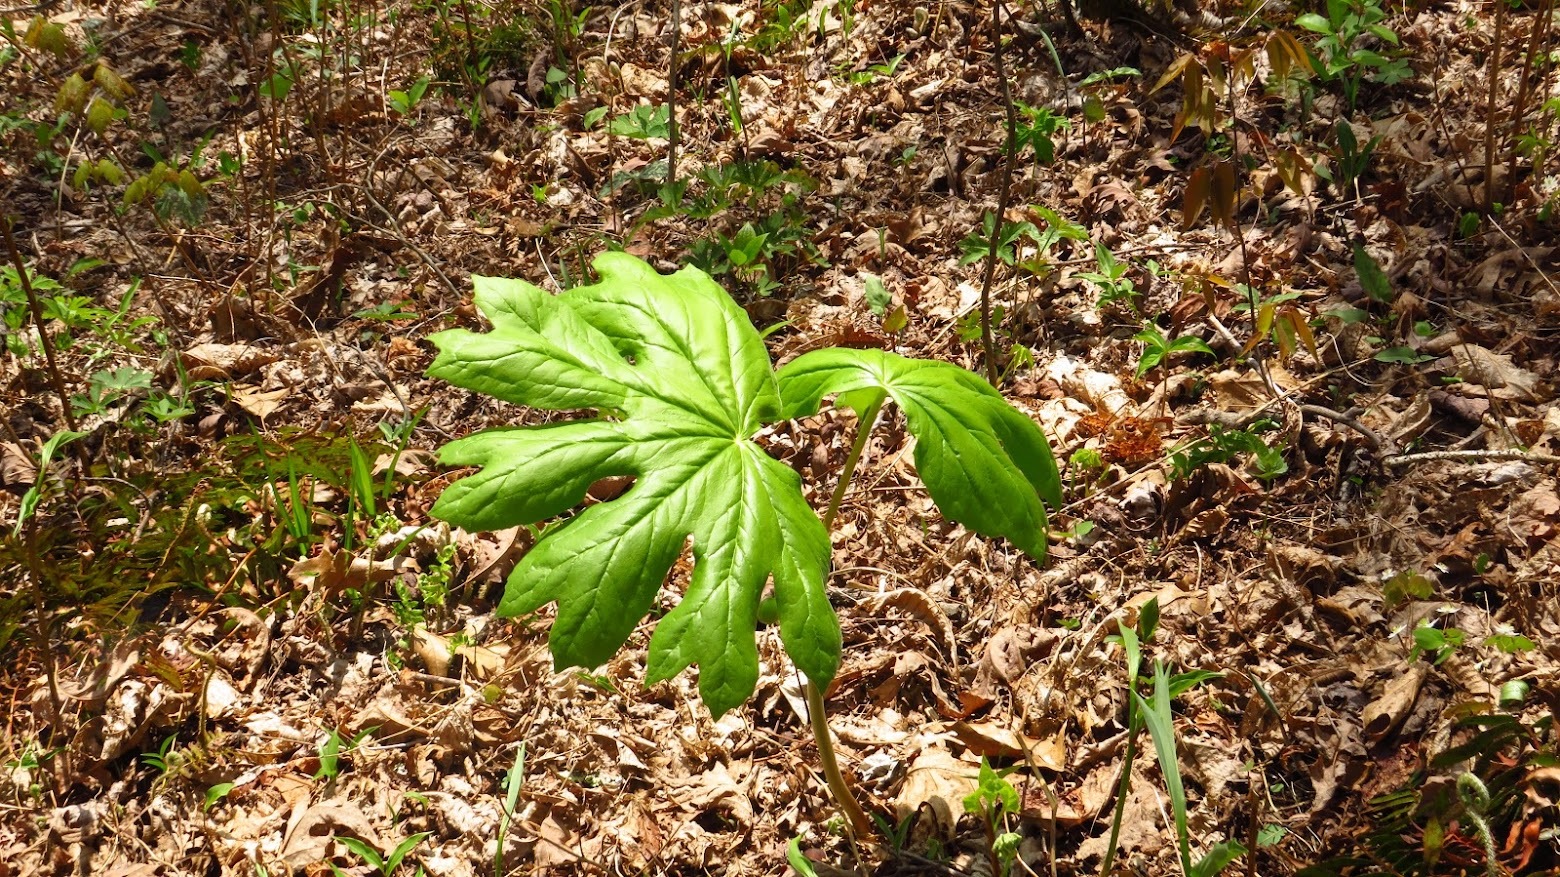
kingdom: Plantae
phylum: Tracheophyta
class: Magnoliopsida
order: Ranunculales
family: Berberidaceae
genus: Podophyllum
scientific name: Podophyllum peltatum
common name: Wild mandrake
